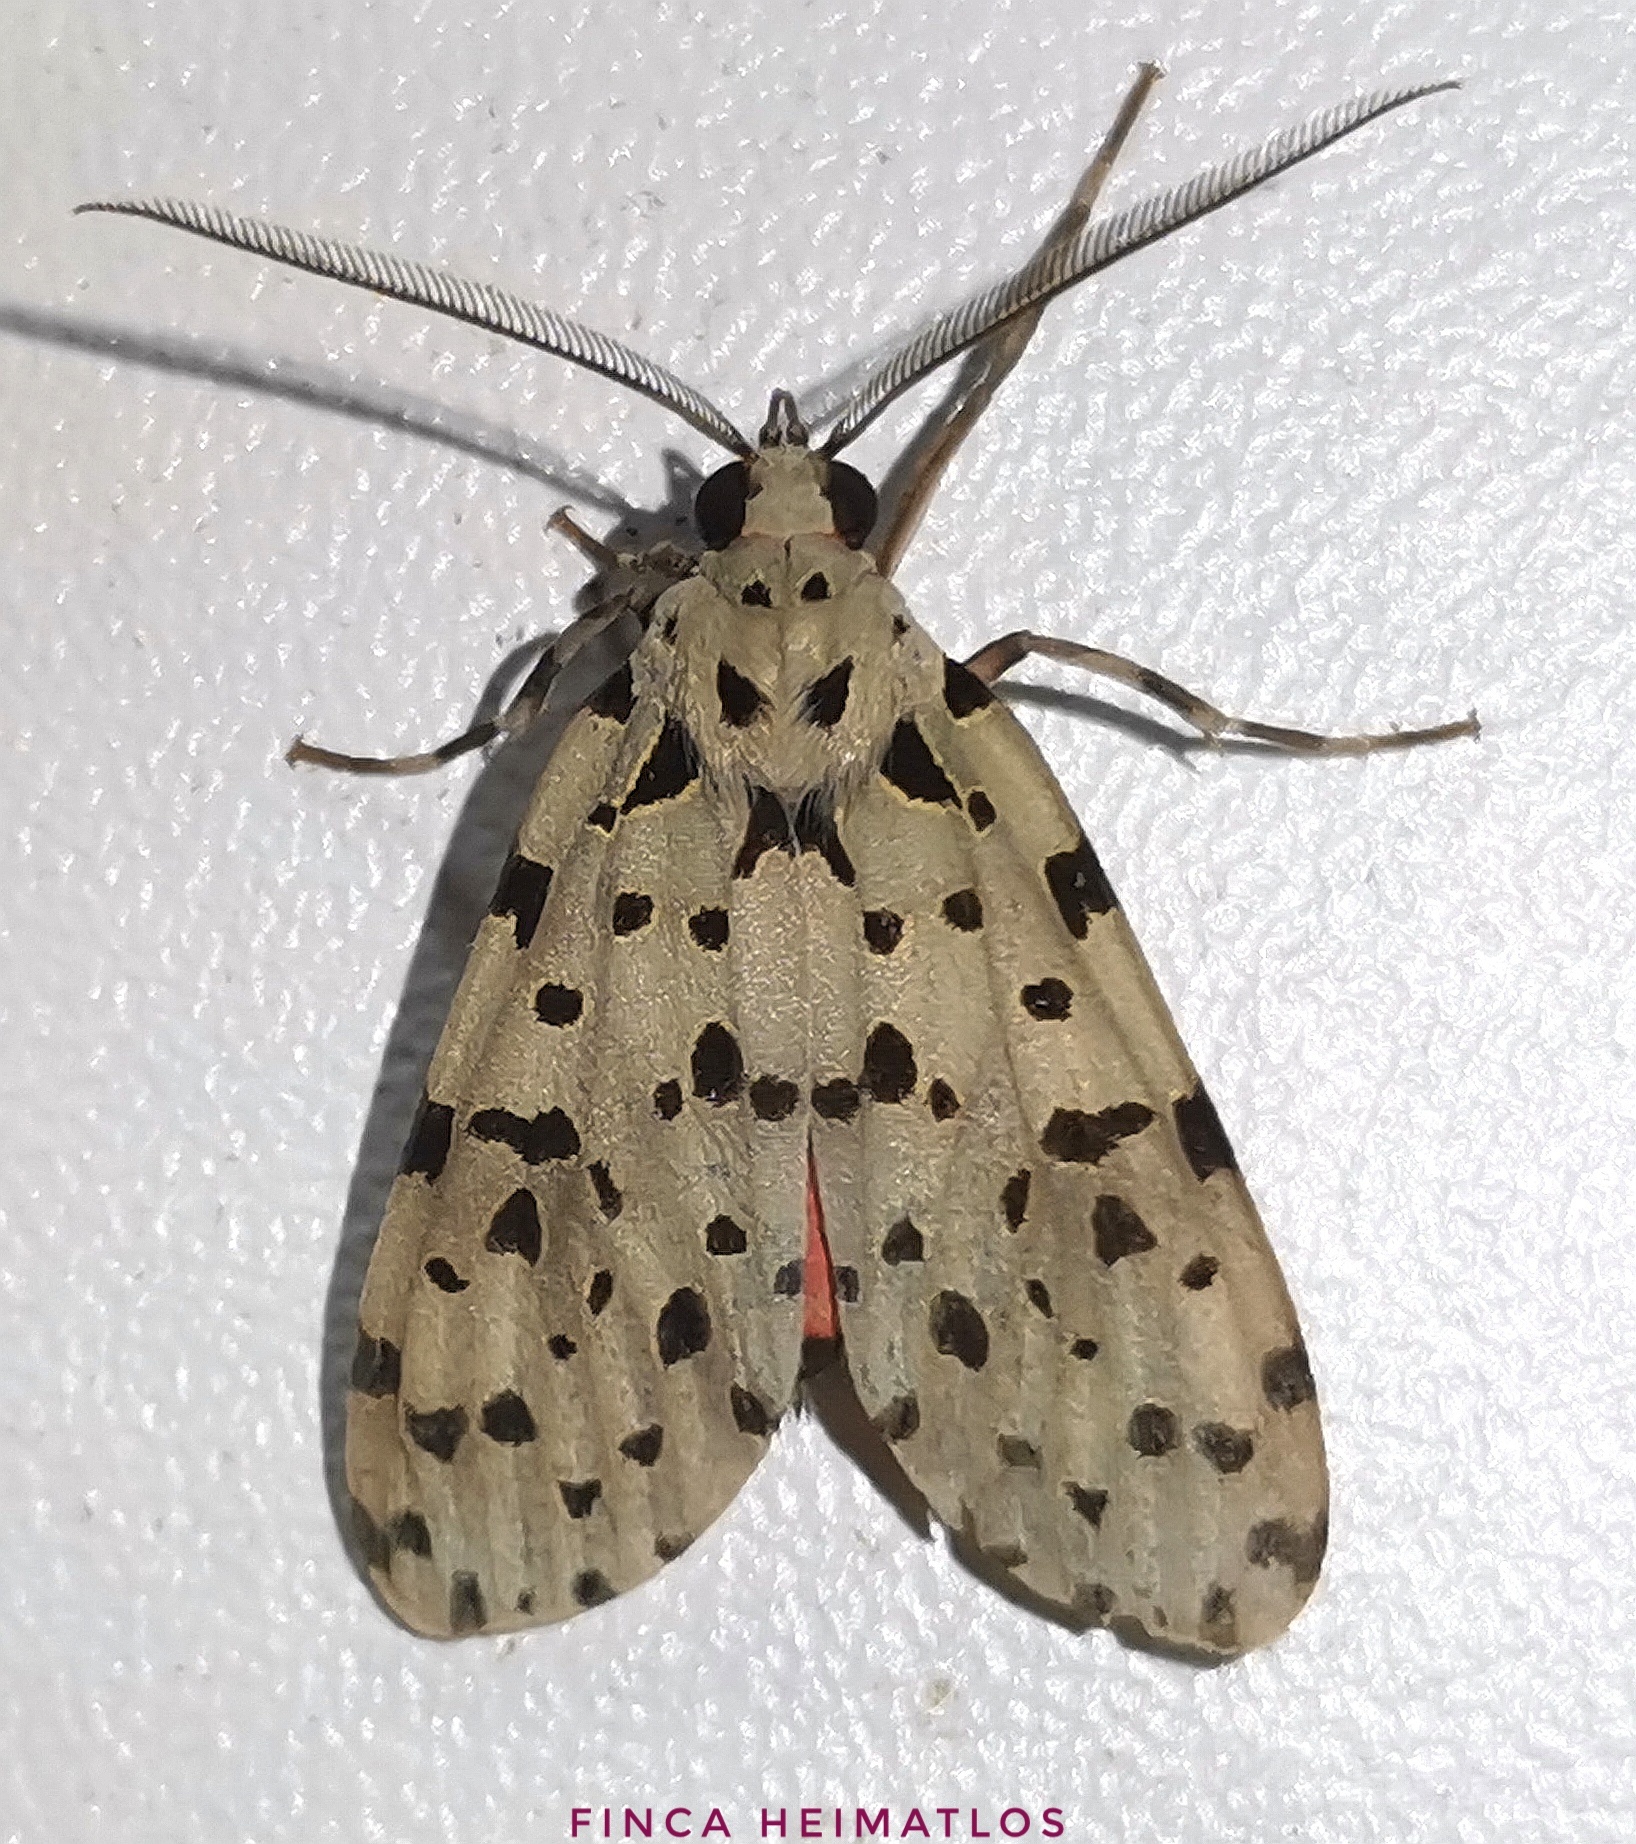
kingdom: Animalia
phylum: Arthropoda
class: Insecta
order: Lepidoptera
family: Erebidae
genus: Eucereon
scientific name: Eucereon formosum
